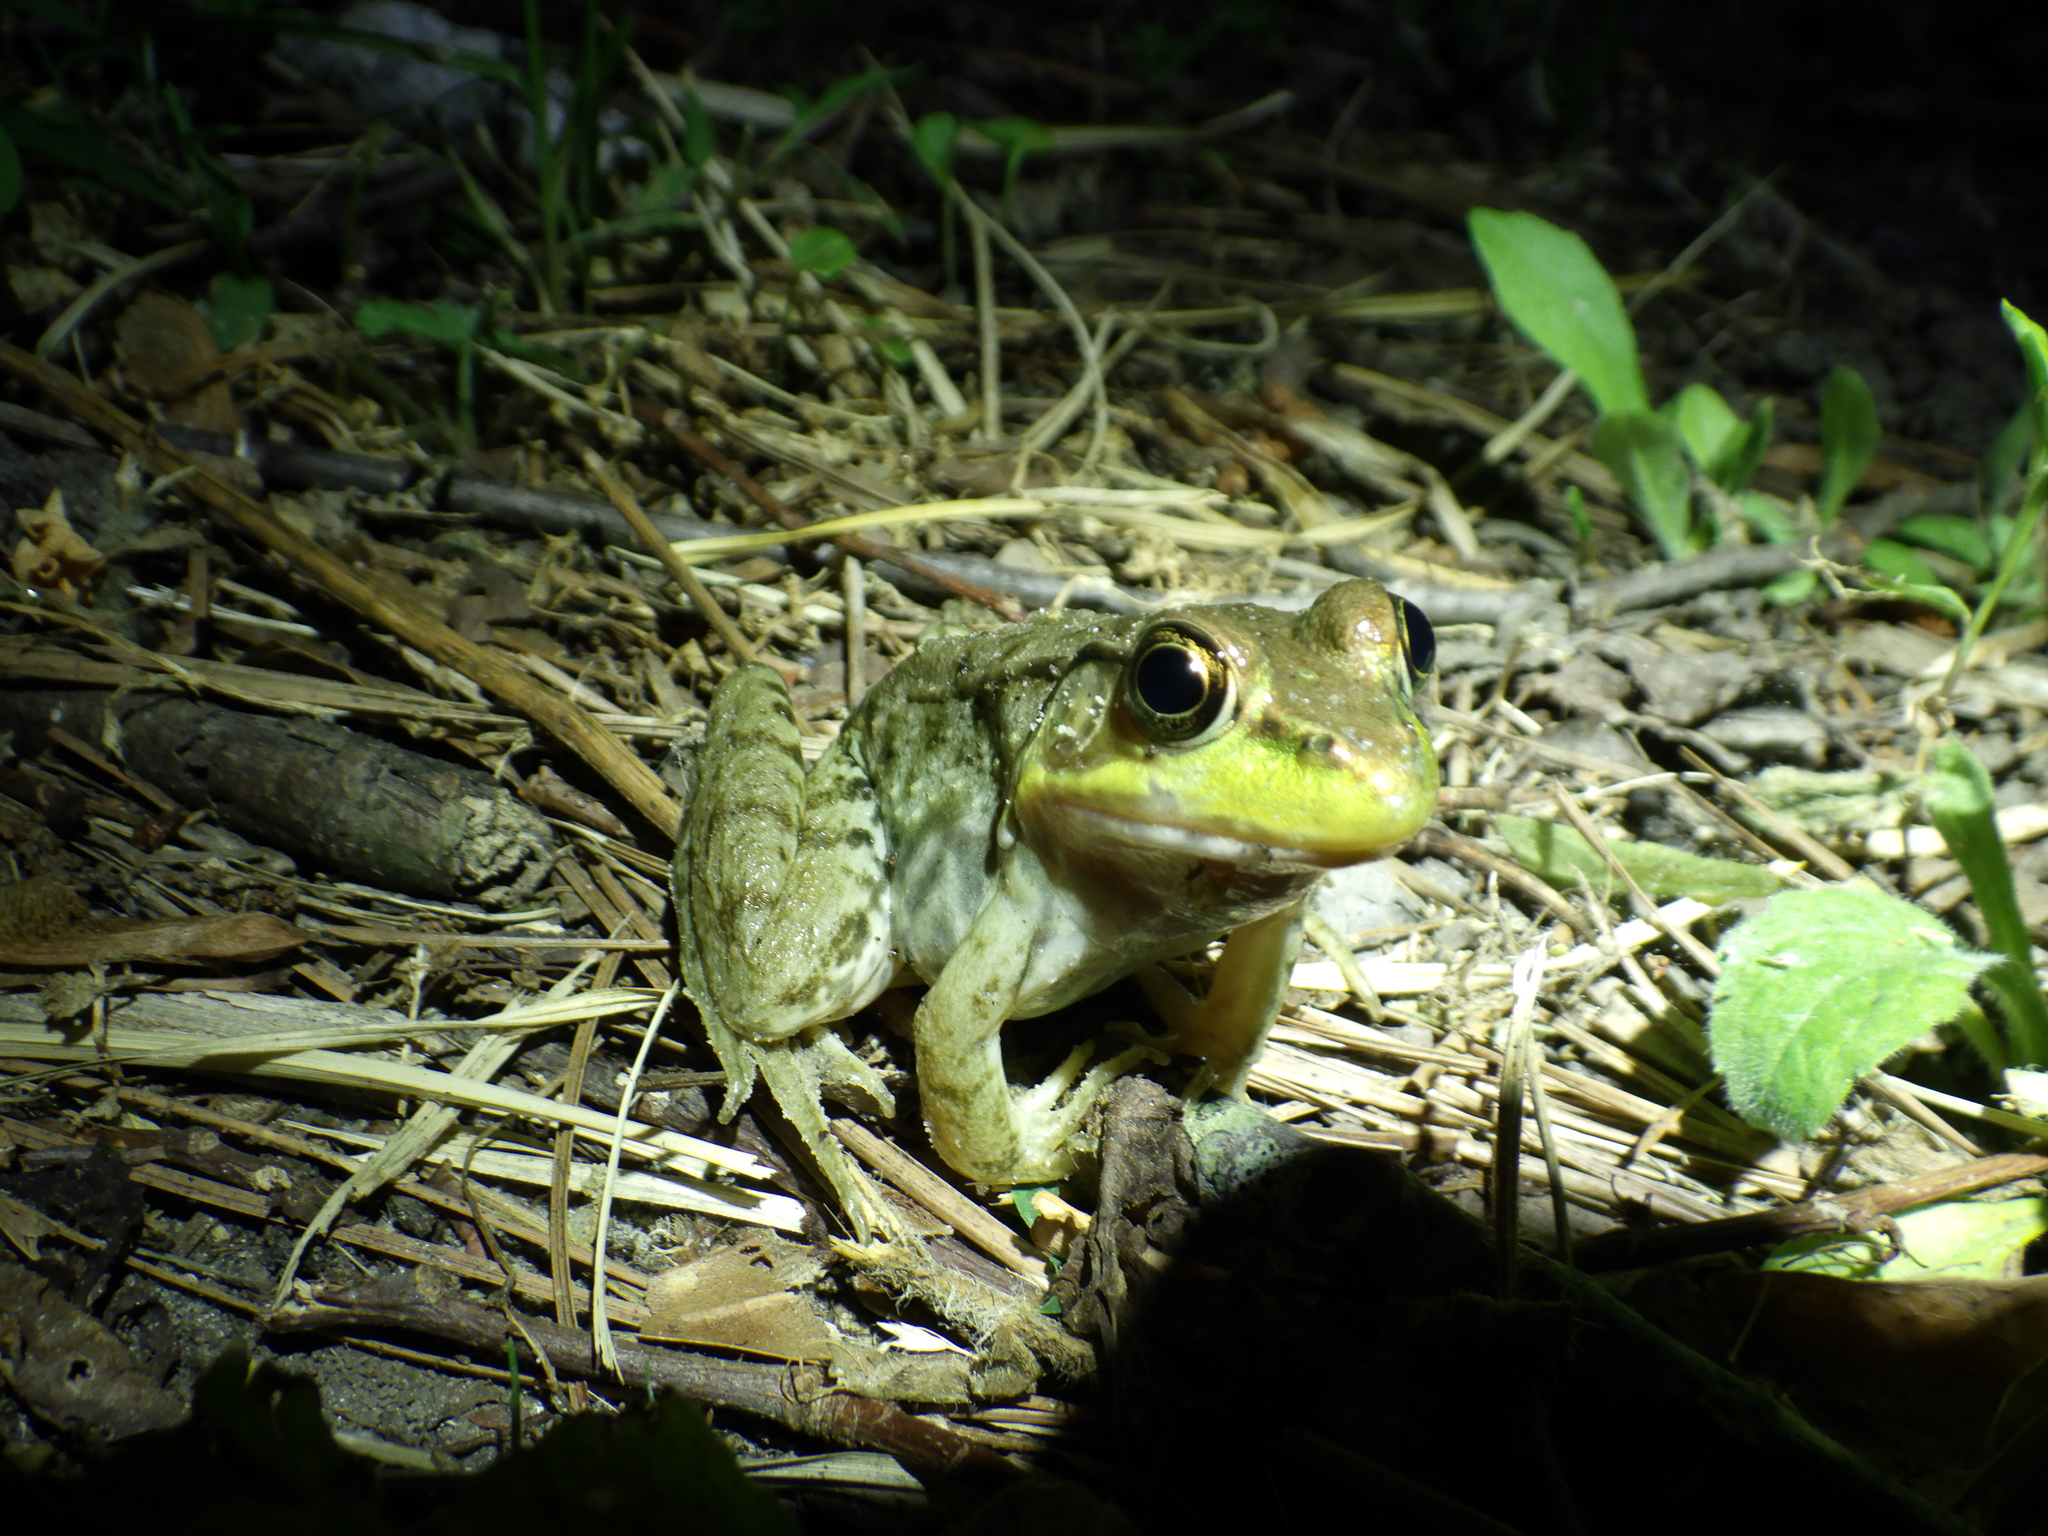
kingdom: Animalia
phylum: Chordata
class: Amphibia
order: Anura
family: Ranidae
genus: Lithobates
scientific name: Lithobates clamitans
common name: Green frog
